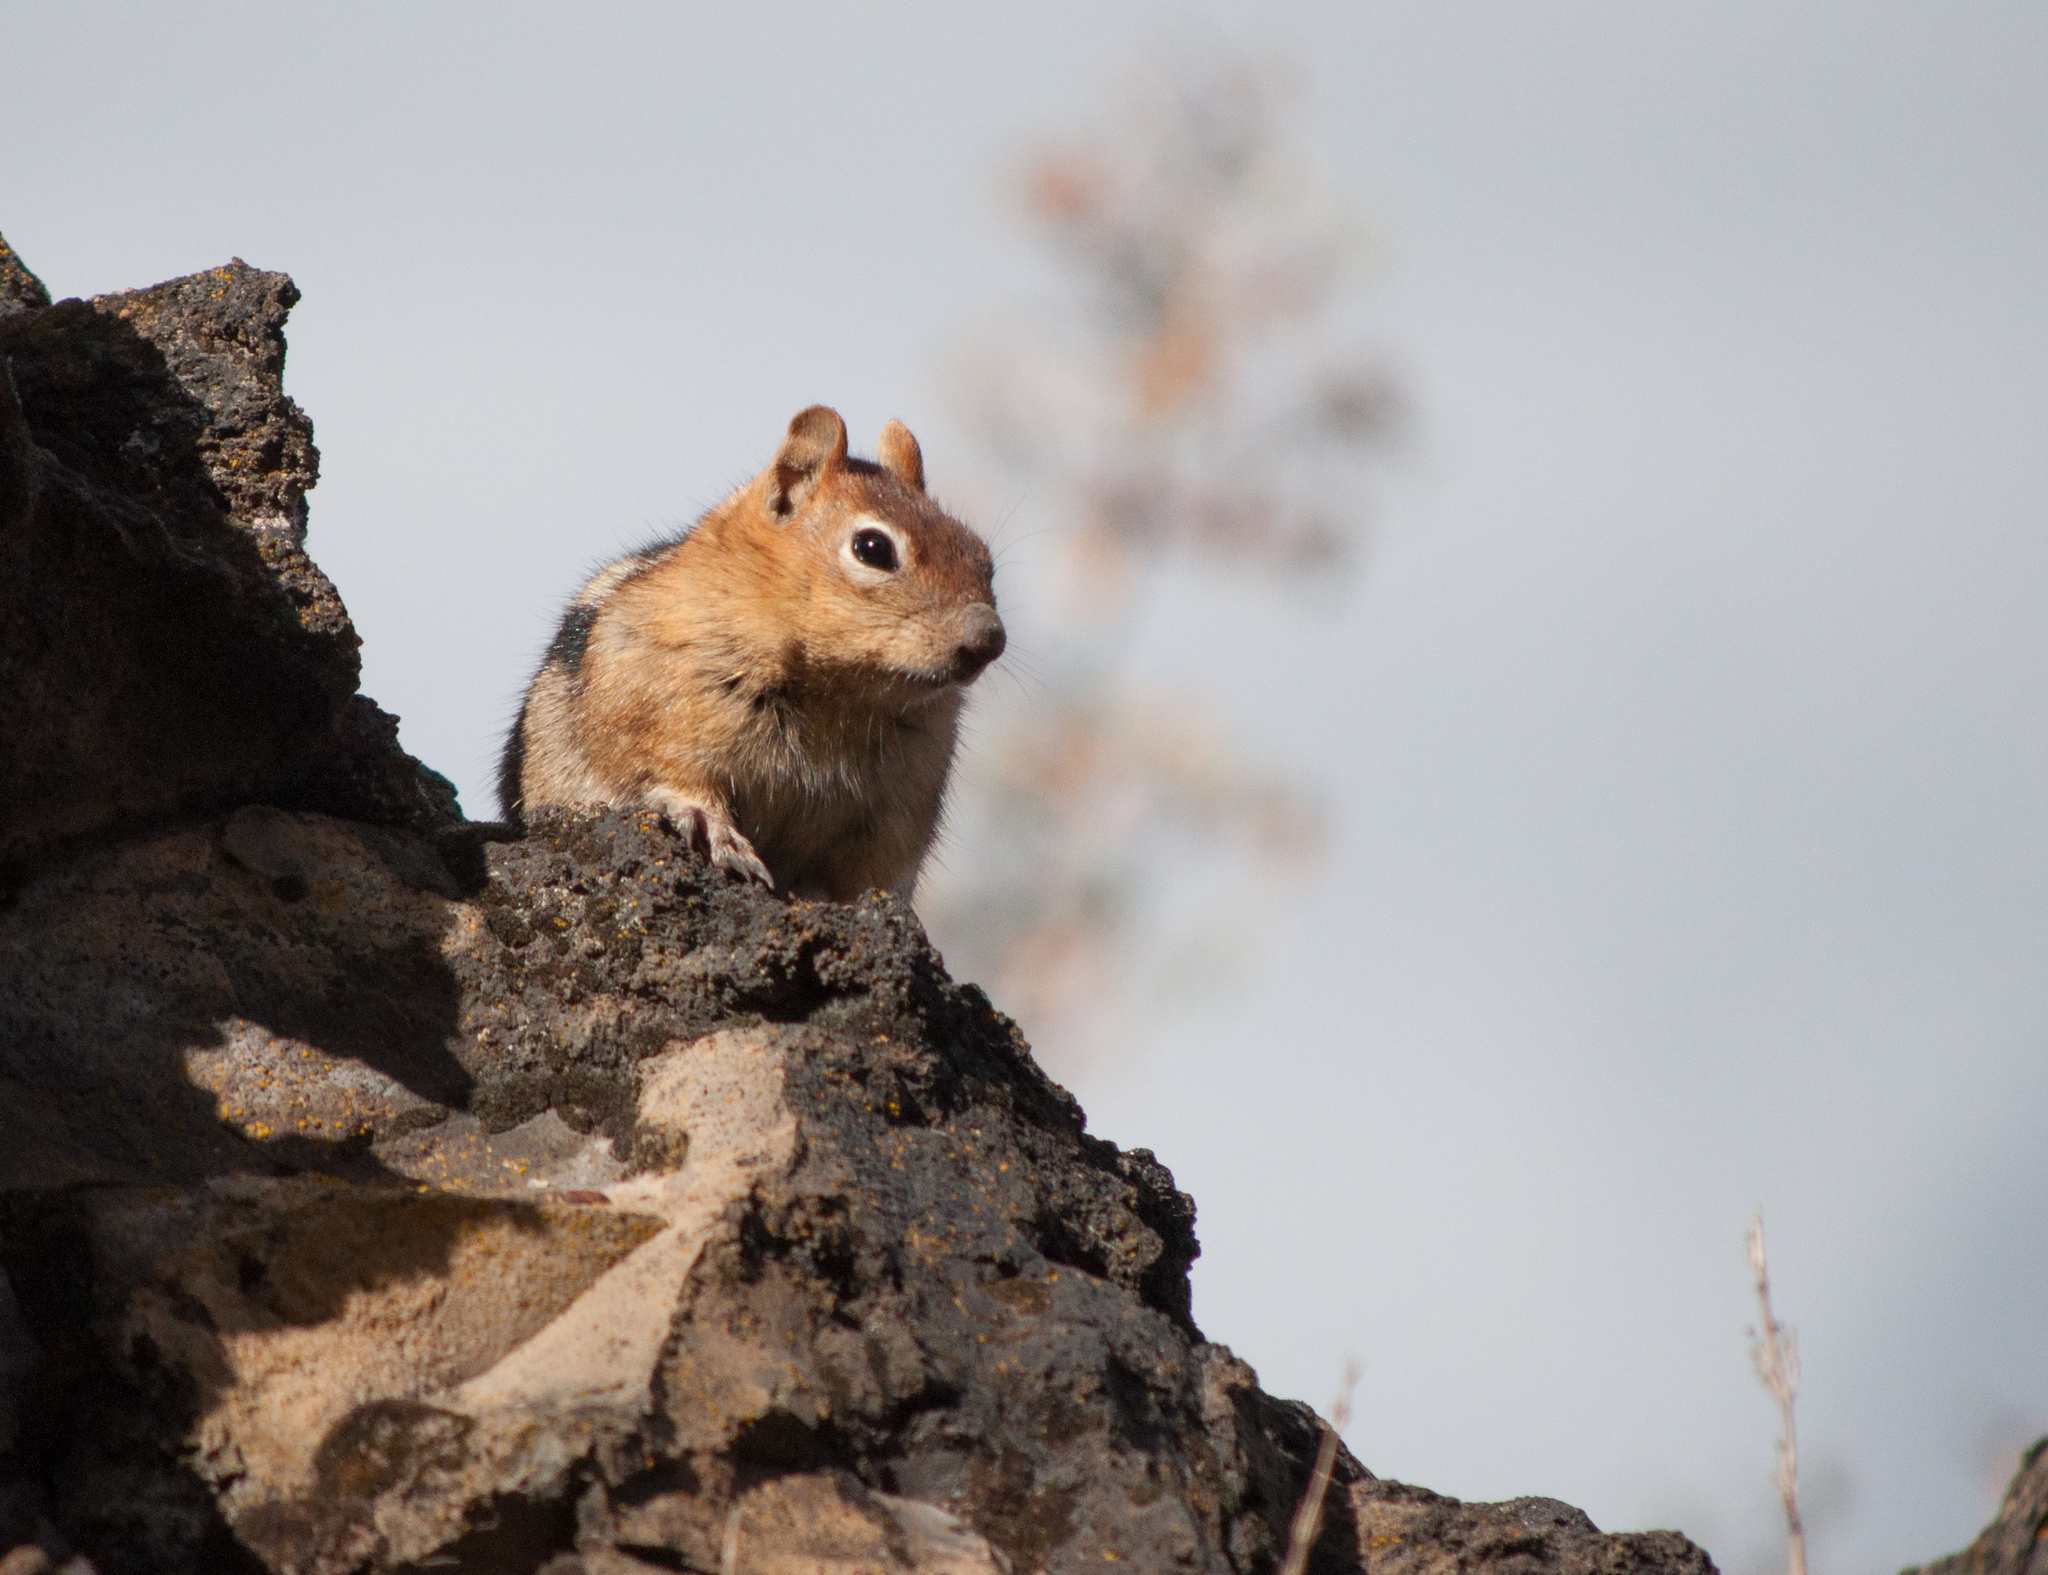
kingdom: Animalia
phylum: Chordata
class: Mammalia
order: Rodentia
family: Sciuridae
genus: Callospermophilus
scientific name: Callospermophilus lateralis
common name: Golden-mantled ground squirrel
